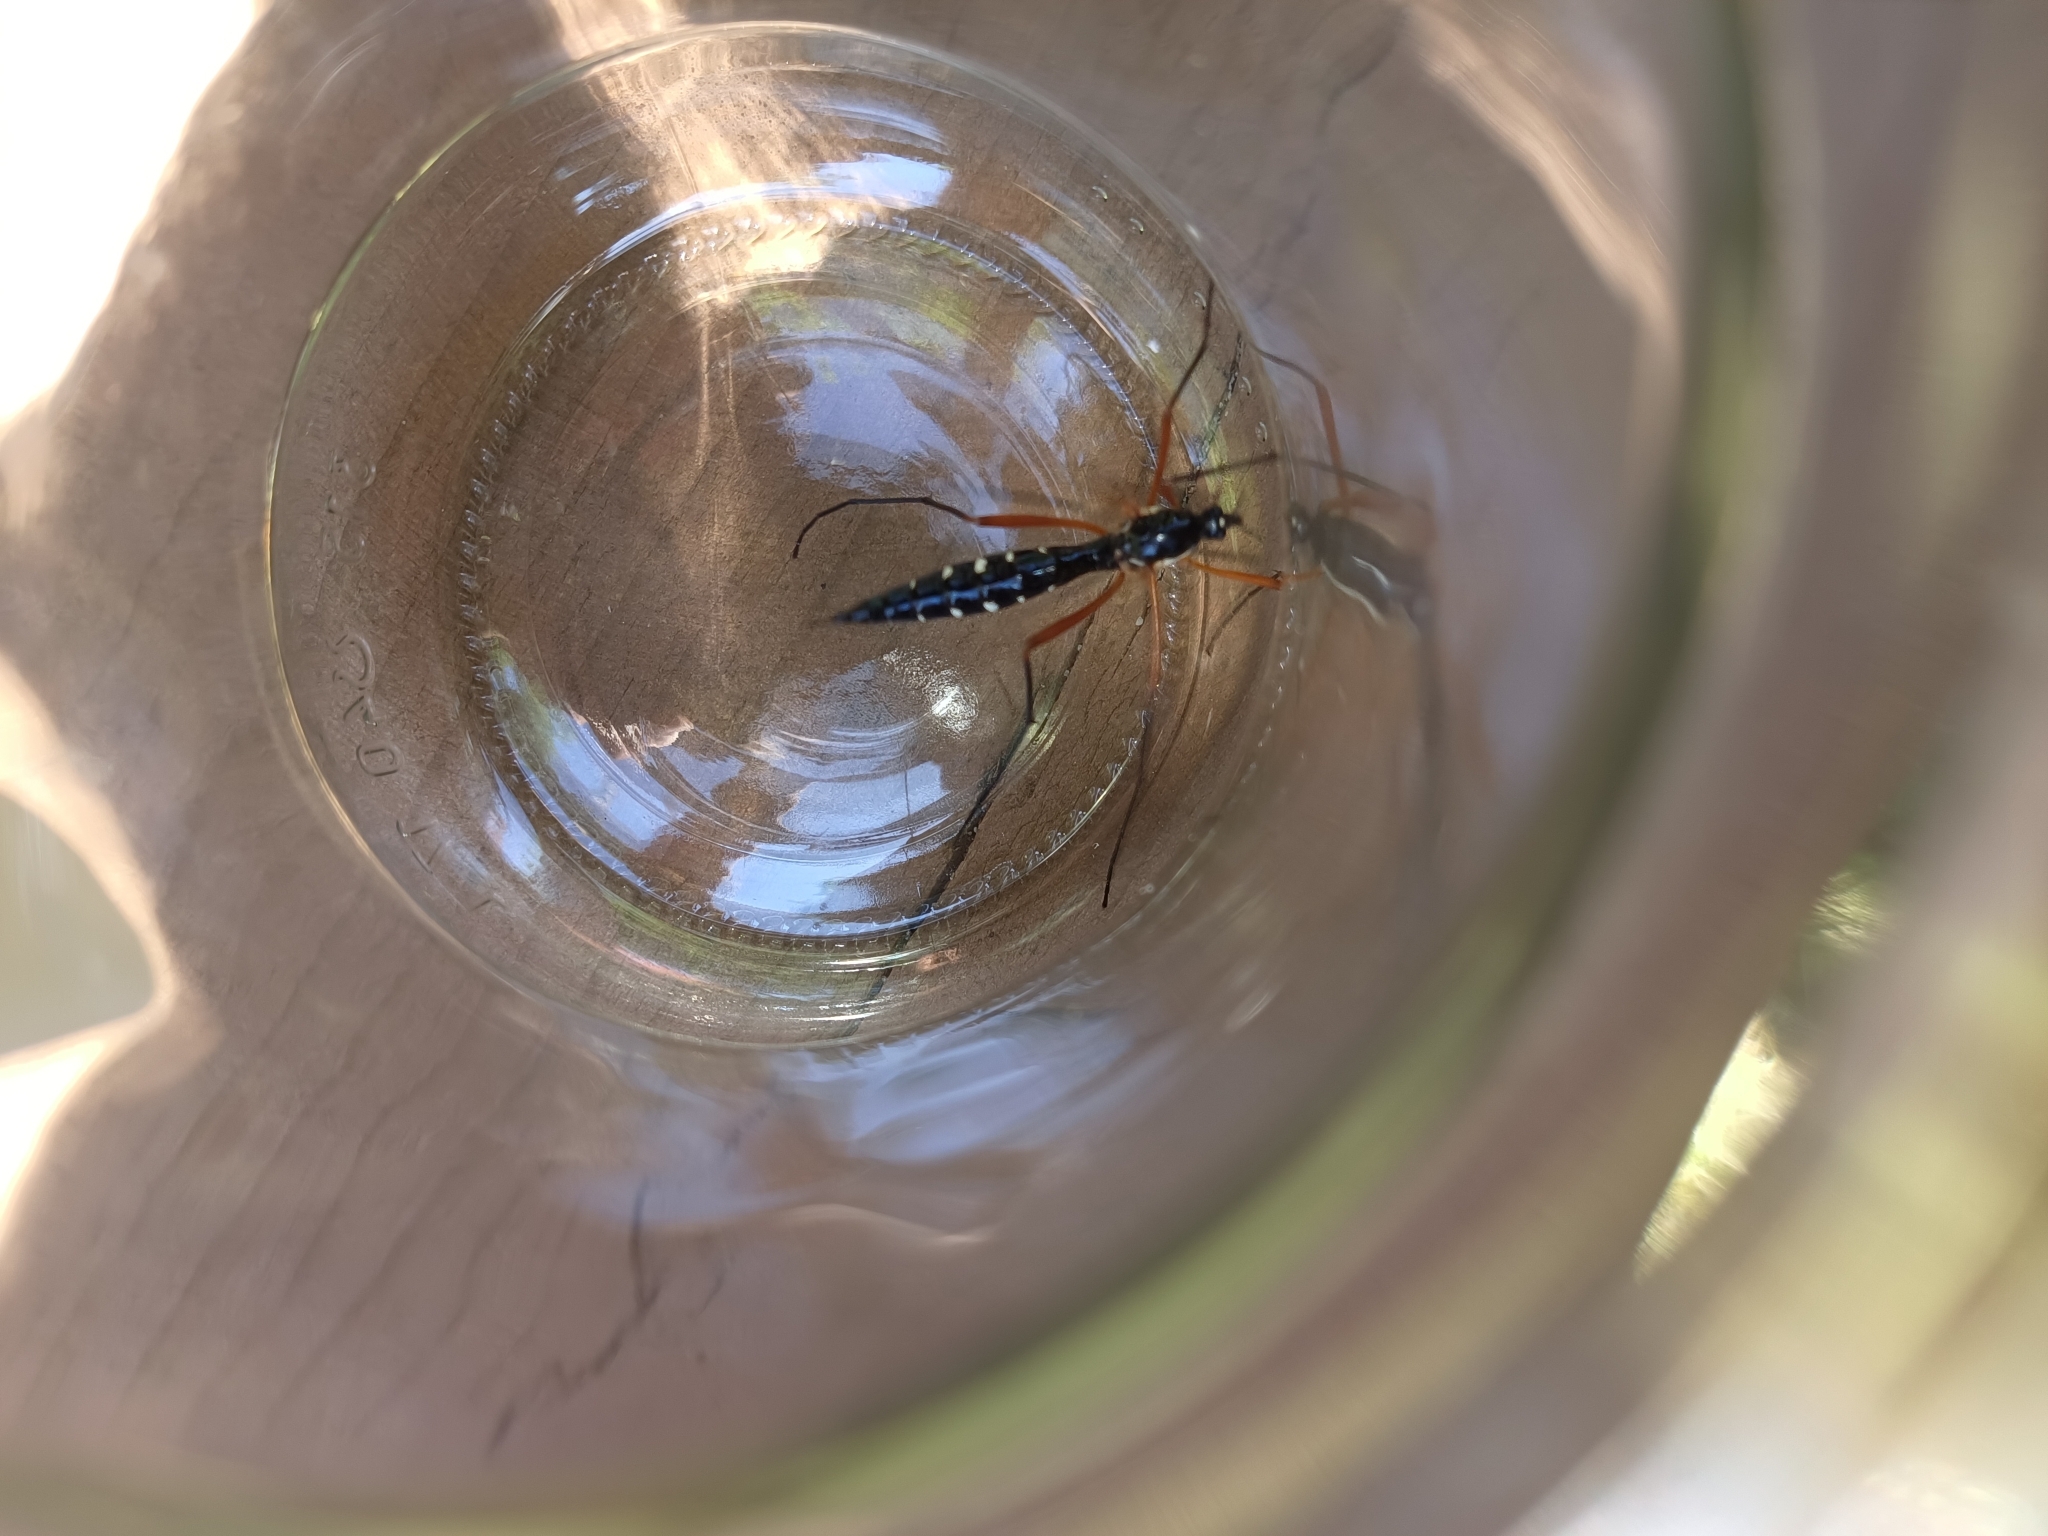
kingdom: Animalia
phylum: Arthropoda
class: Insecta
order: Diptera
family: Tipulidae
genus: Ctenophora
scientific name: Ctenophora guttata
